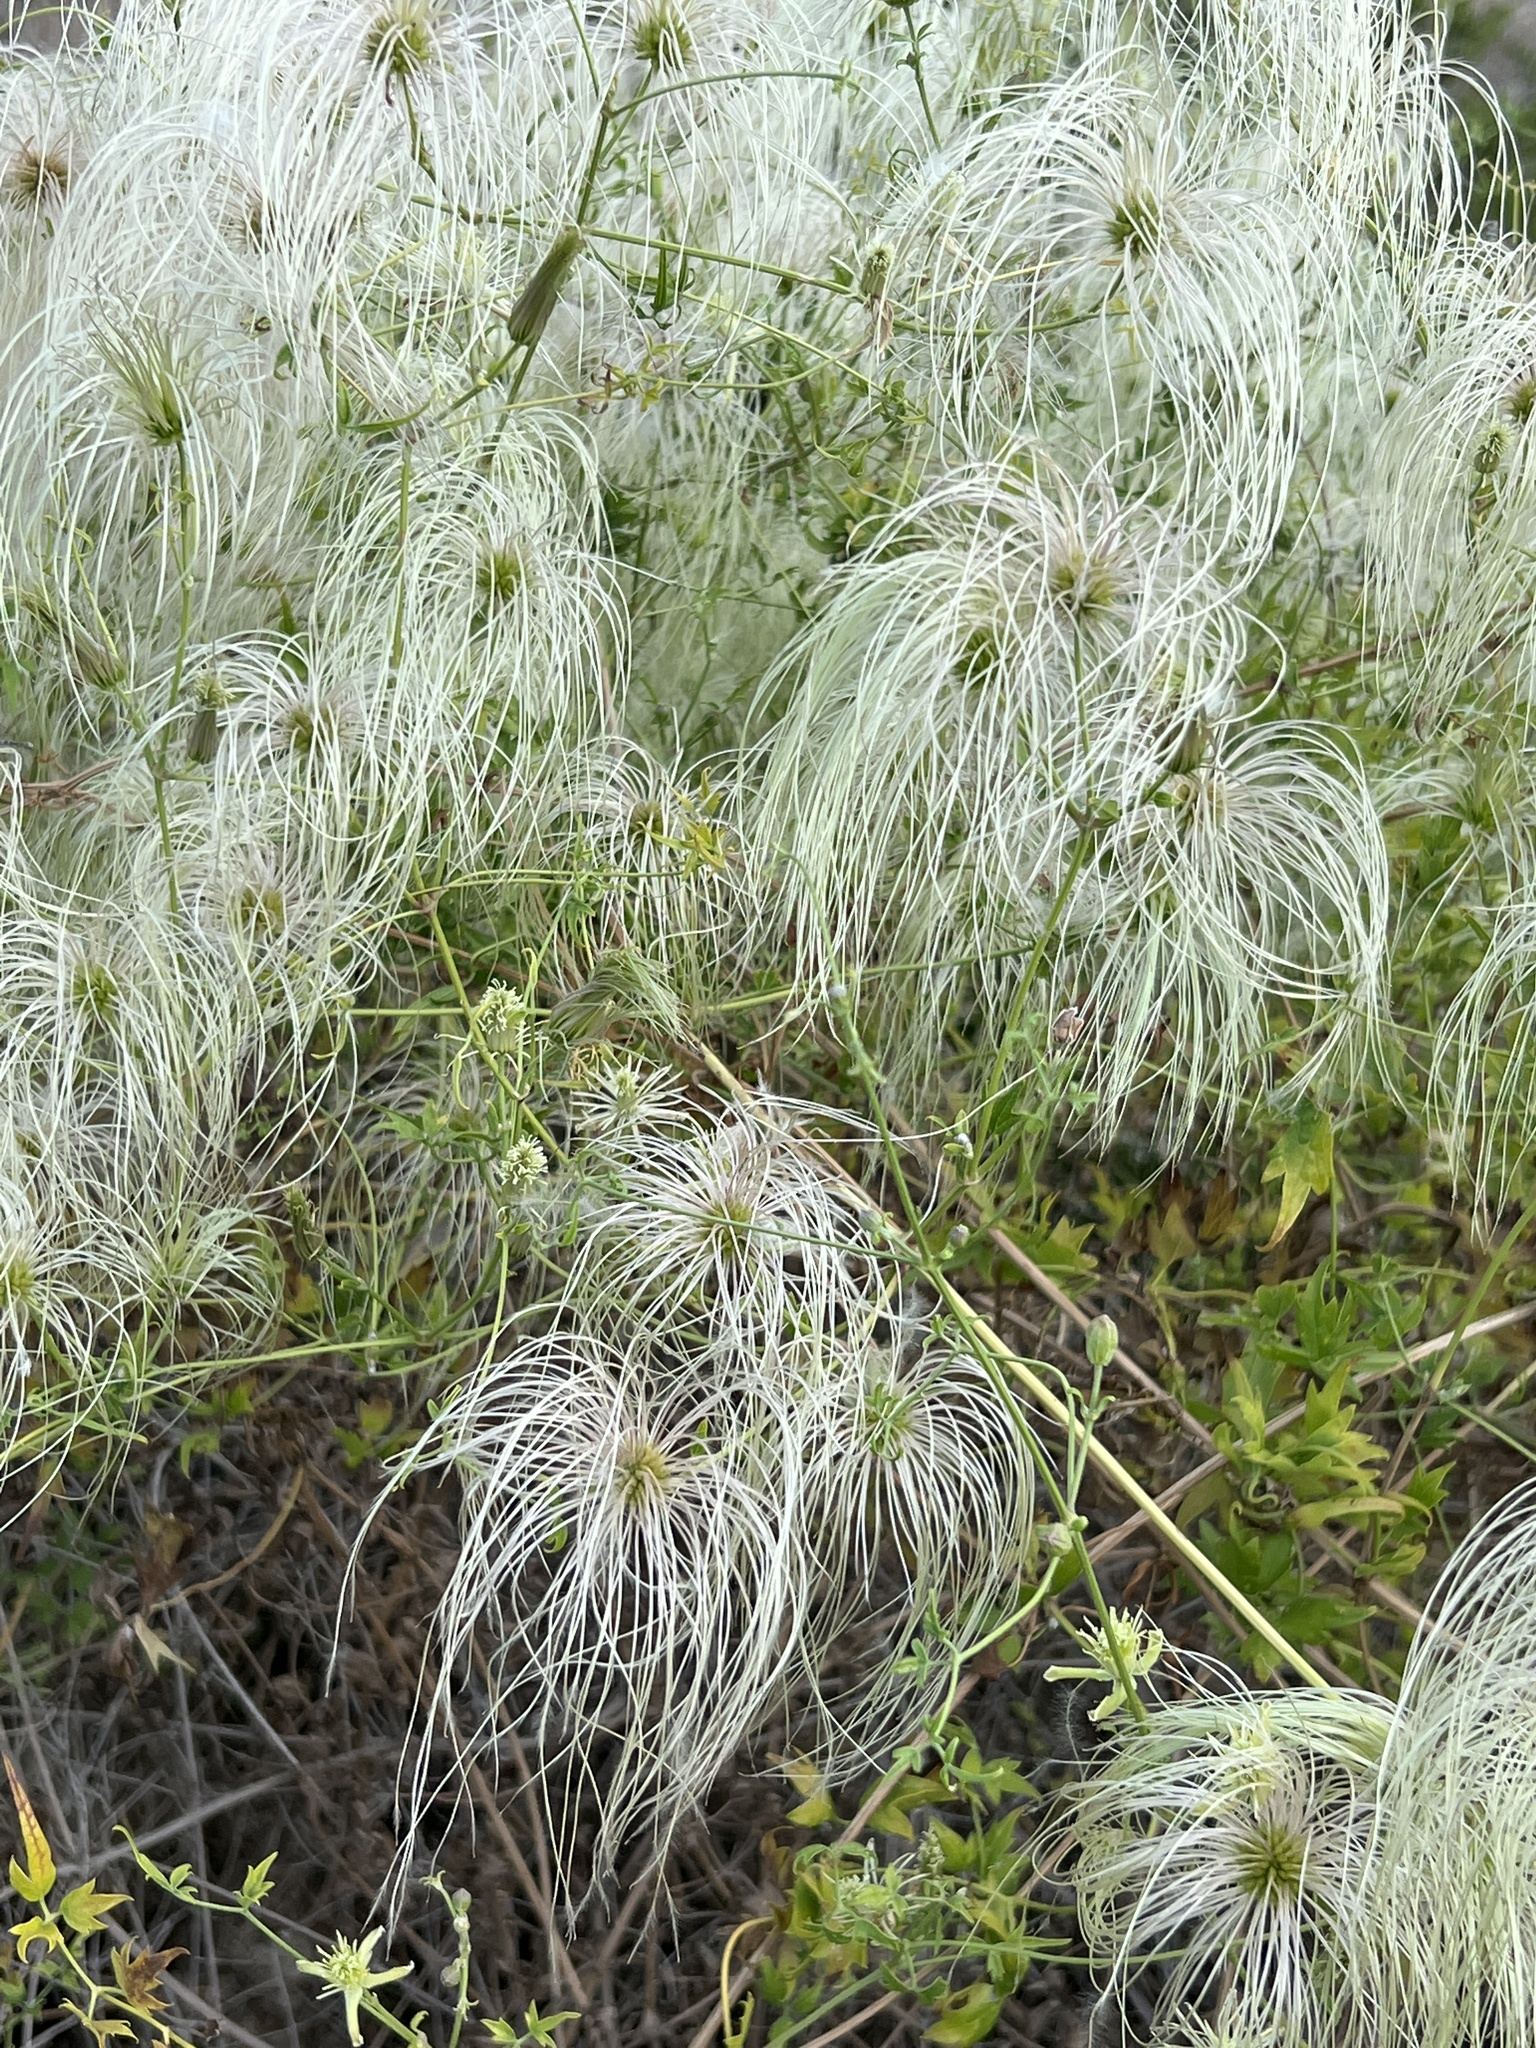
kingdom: Plantae
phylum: Tracheophyta
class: Magnoliopsida
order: Ranunculales
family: Ranunculaceae
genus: Clematis
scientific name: Clematis drummondii
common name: Texas virgin's bower
